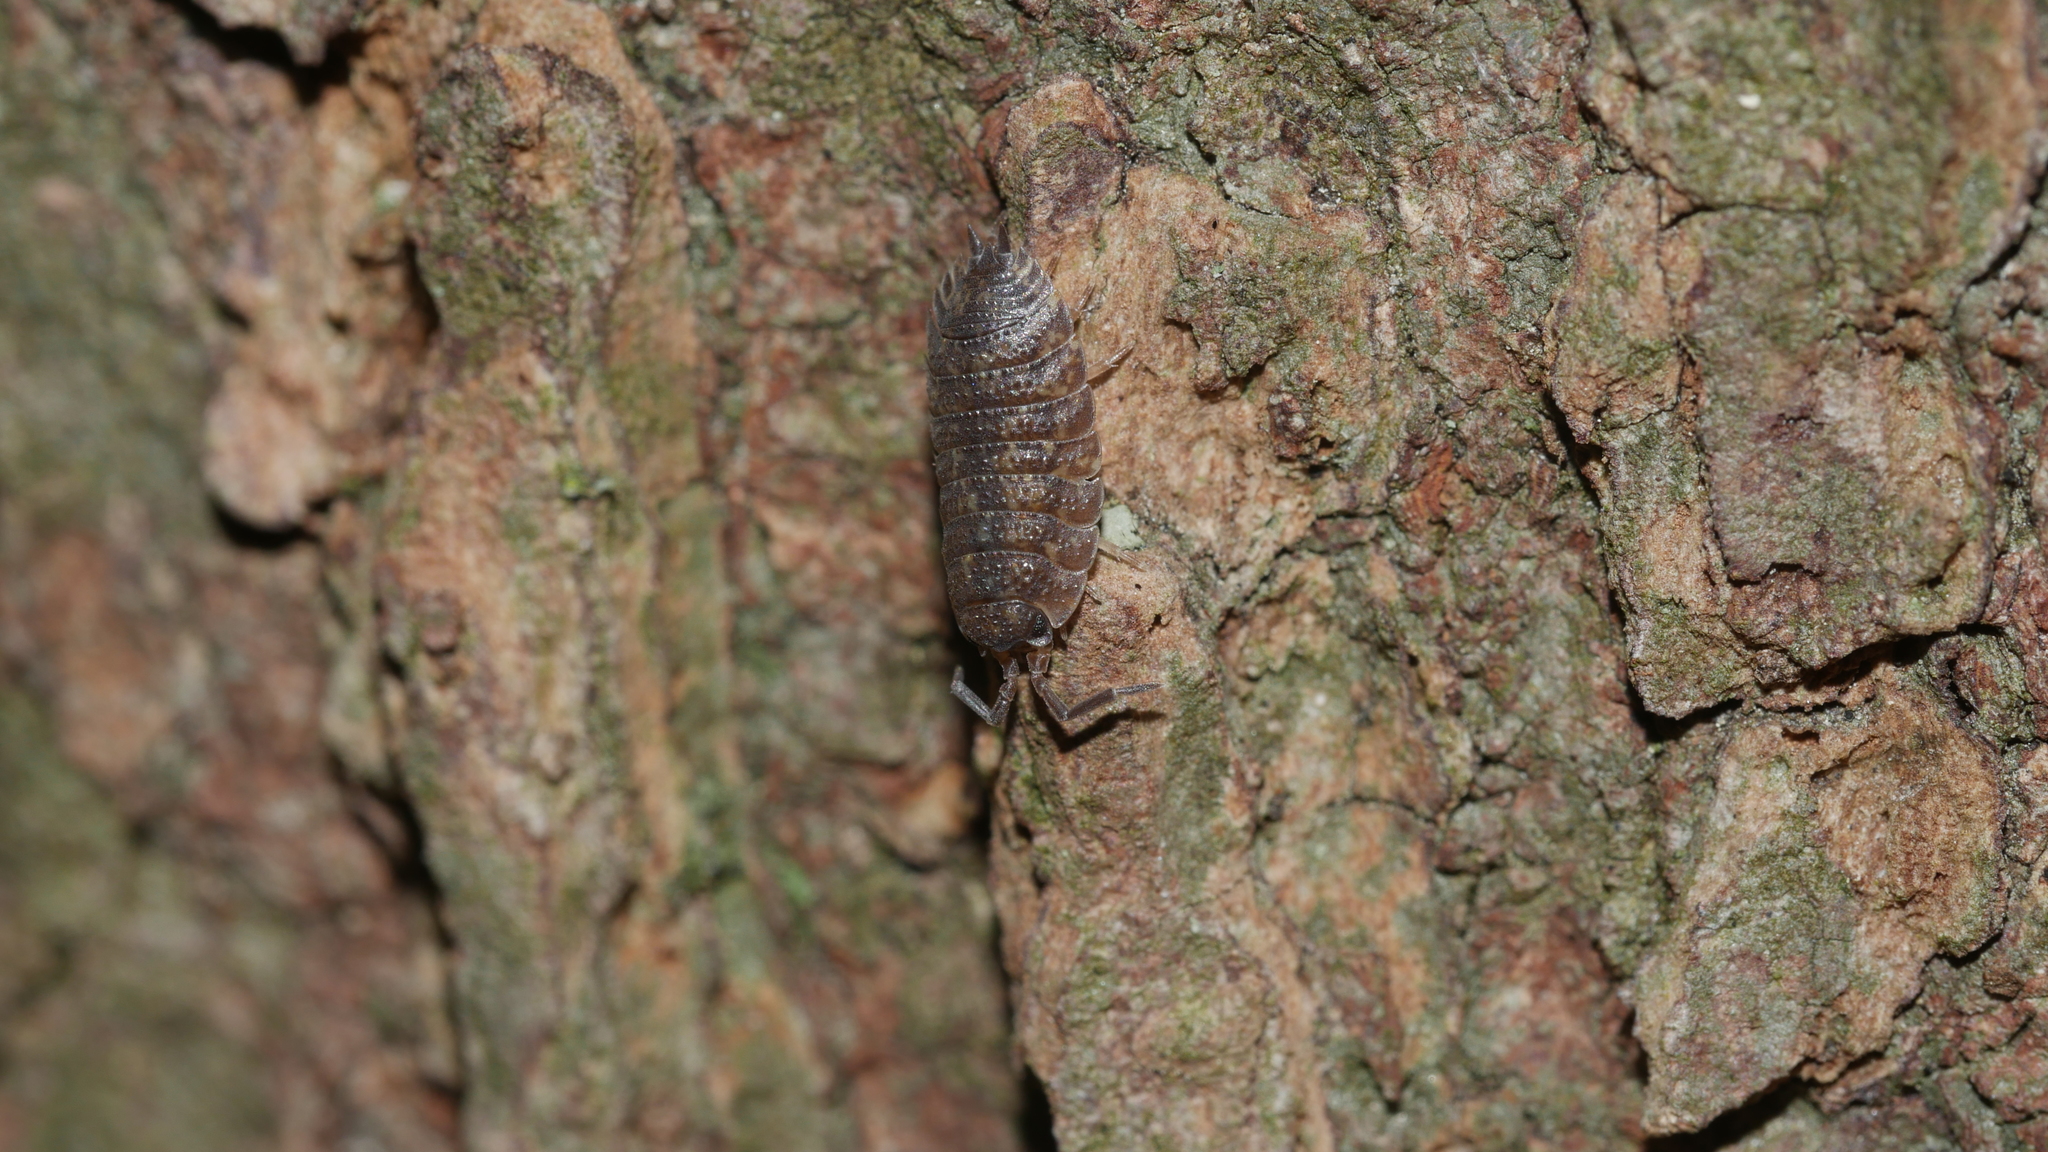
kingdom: Animalia
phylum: Arthropoda
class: Malacostraca
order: Isopoda
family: Porcellionidae
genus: Porcellio
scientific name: Porcellio scaber
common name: Common rough woodlouse
